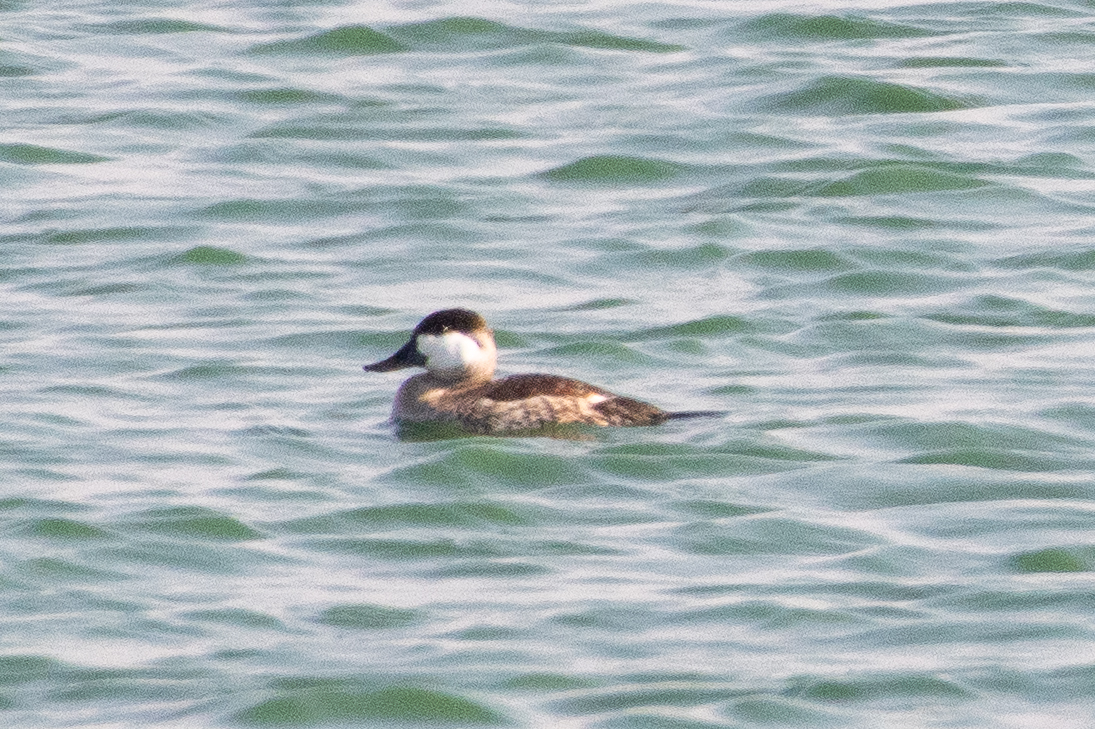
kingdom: Animalia
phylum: Chordata
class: Aves
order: Anseriformes
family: Anatidae
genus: Oxyura
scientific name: Oxyura jamaicensis
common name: Ruddy duck
